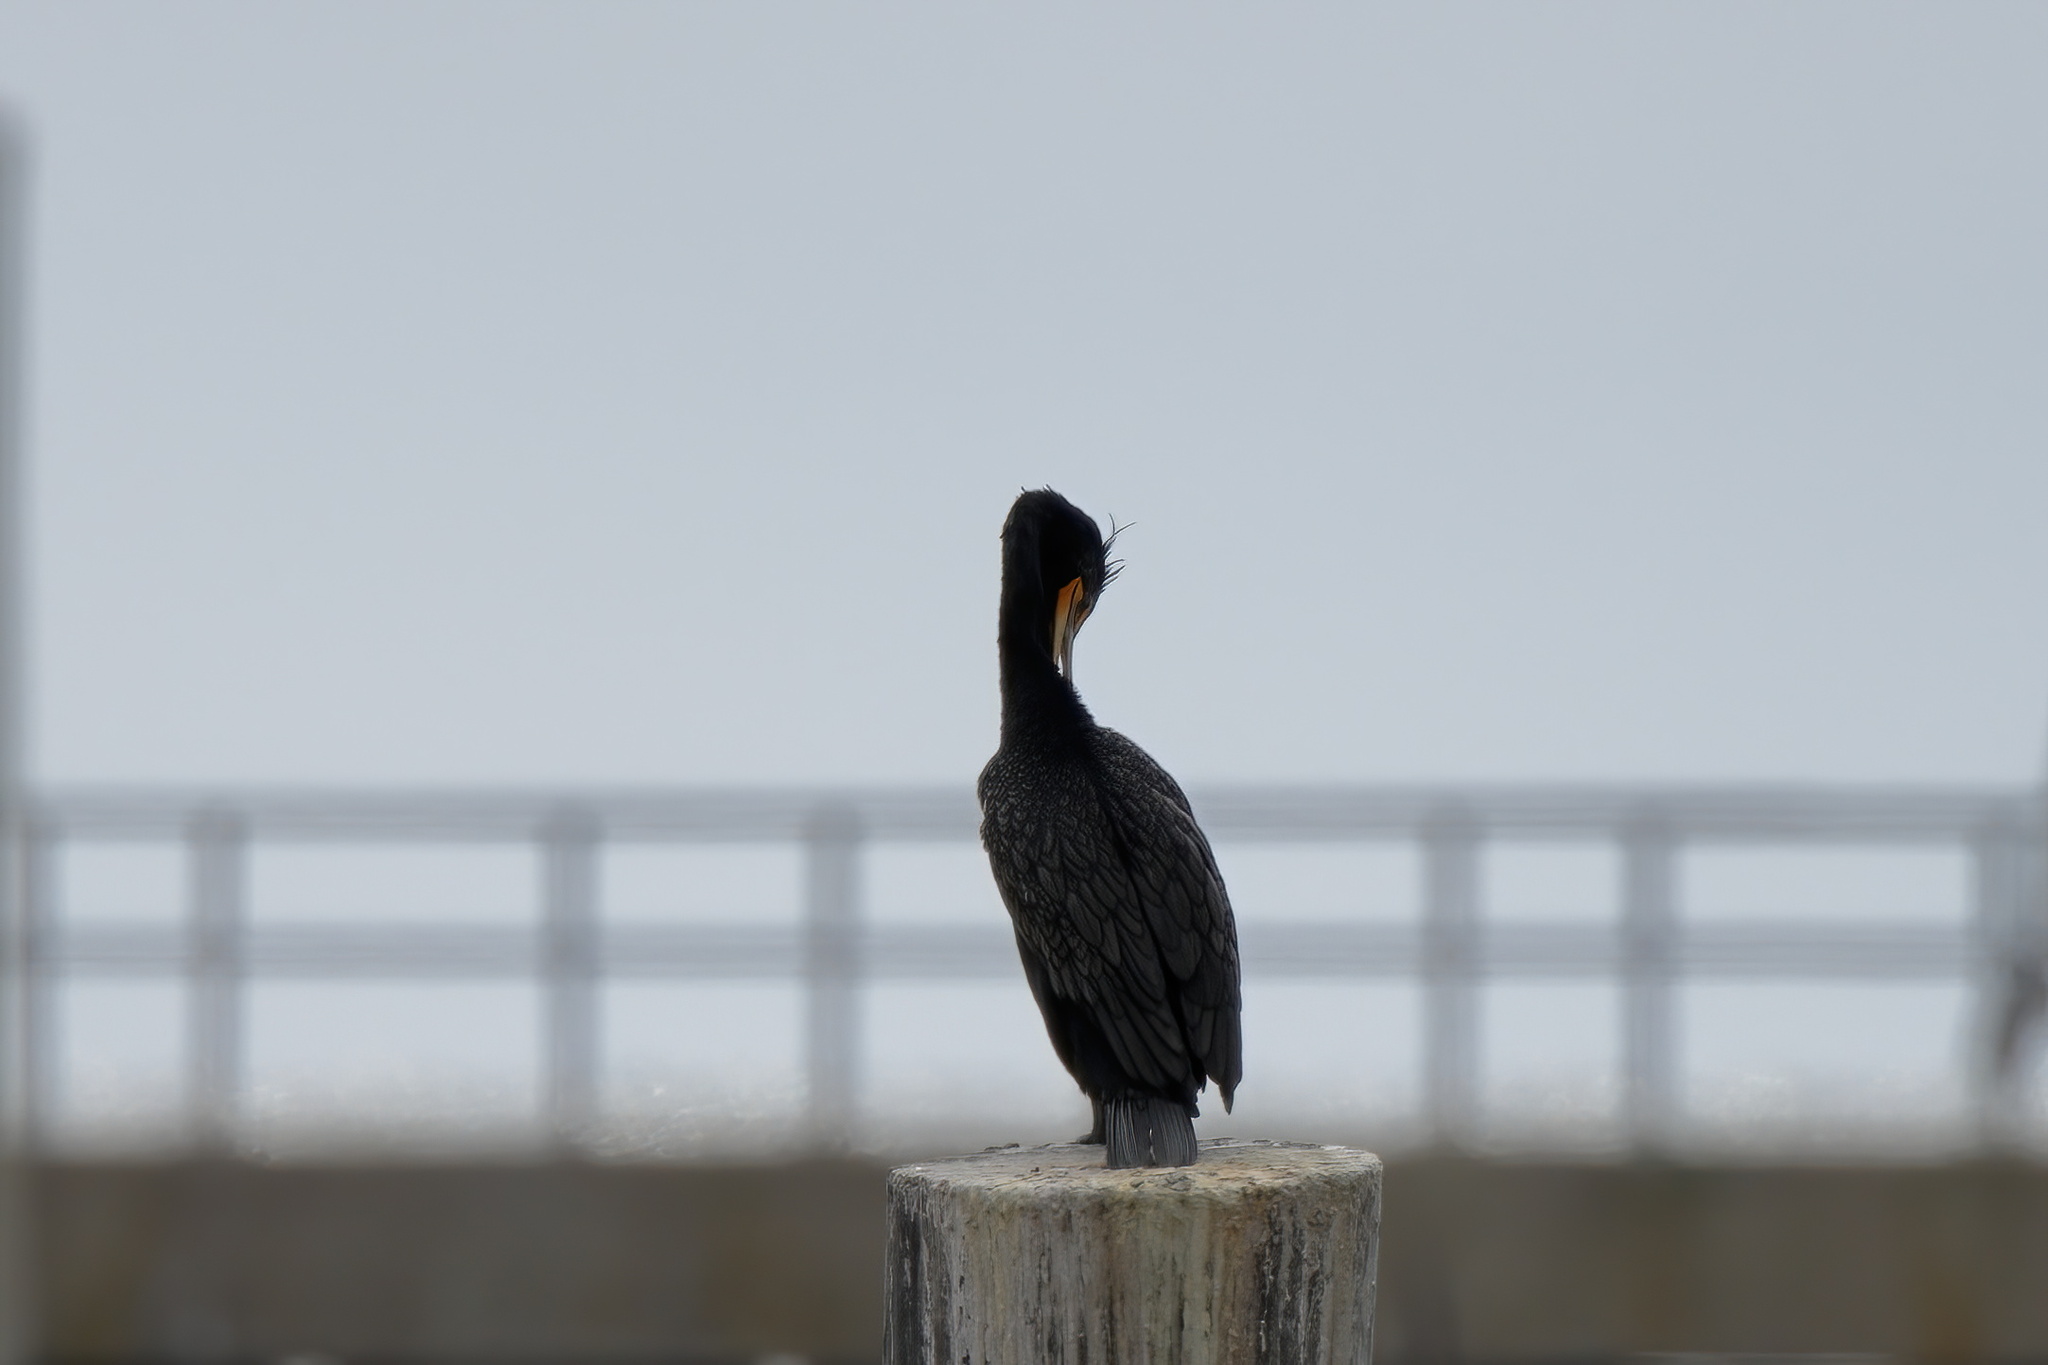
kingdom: Animalia
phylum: Chordata
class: Aves
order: Suliformes
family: Phalacrocoracidae
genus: Phalacrocorax
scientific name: Phalacrocorax auritus
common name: Double-crested cormorant
